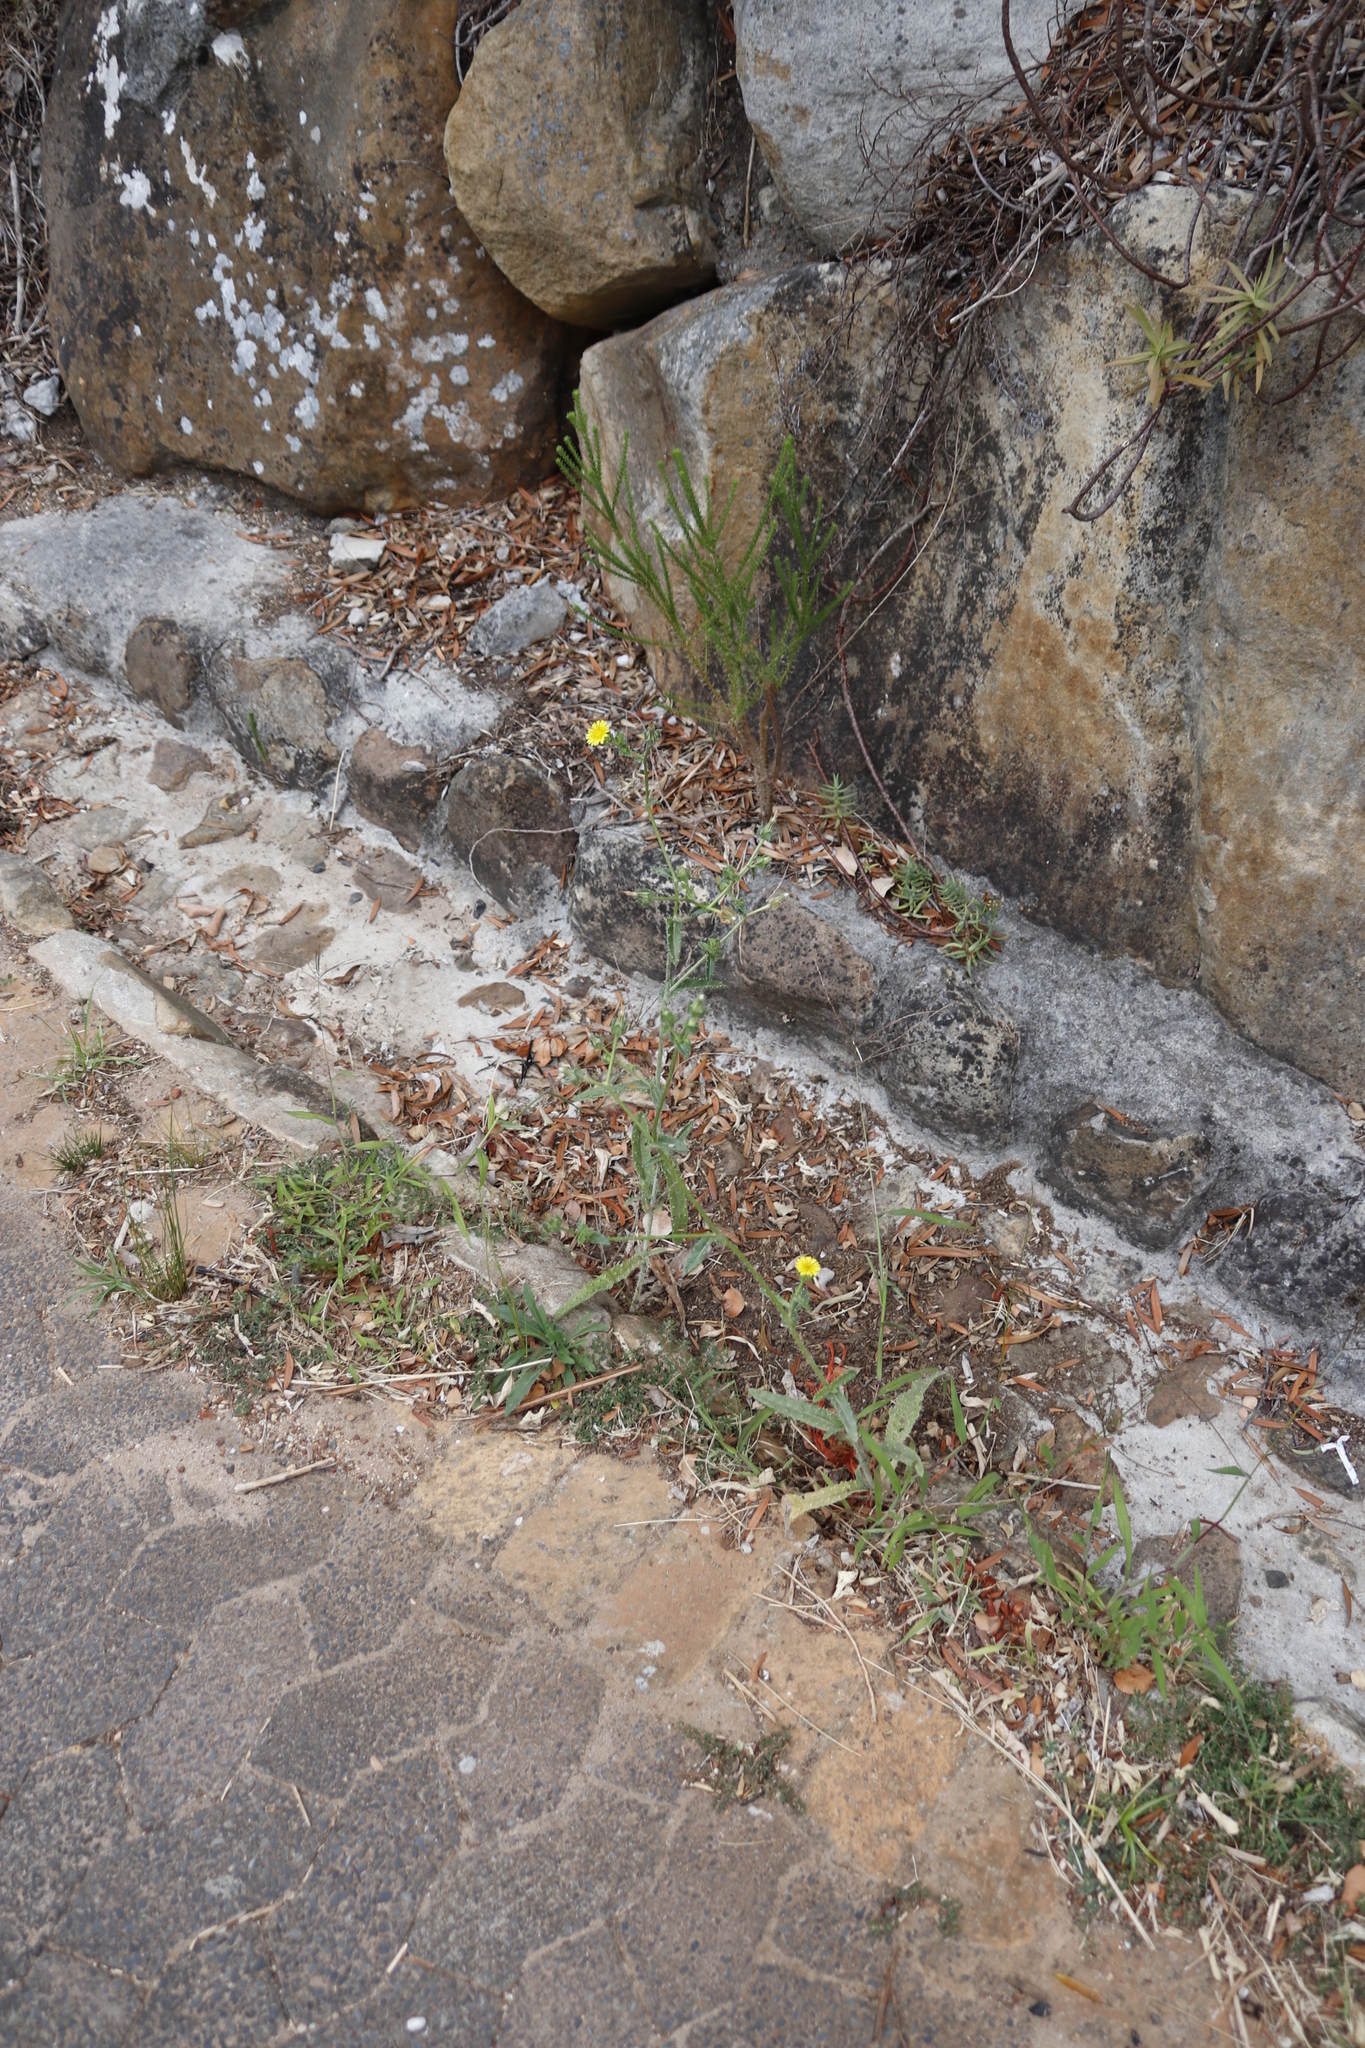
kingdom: Plantae
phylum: Tracheophyta
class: Magnoliopsida
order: Asterales
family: Asteraceae
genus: Helminthotheca
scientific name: Helminthotheca echioides
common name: Ox-tongue
